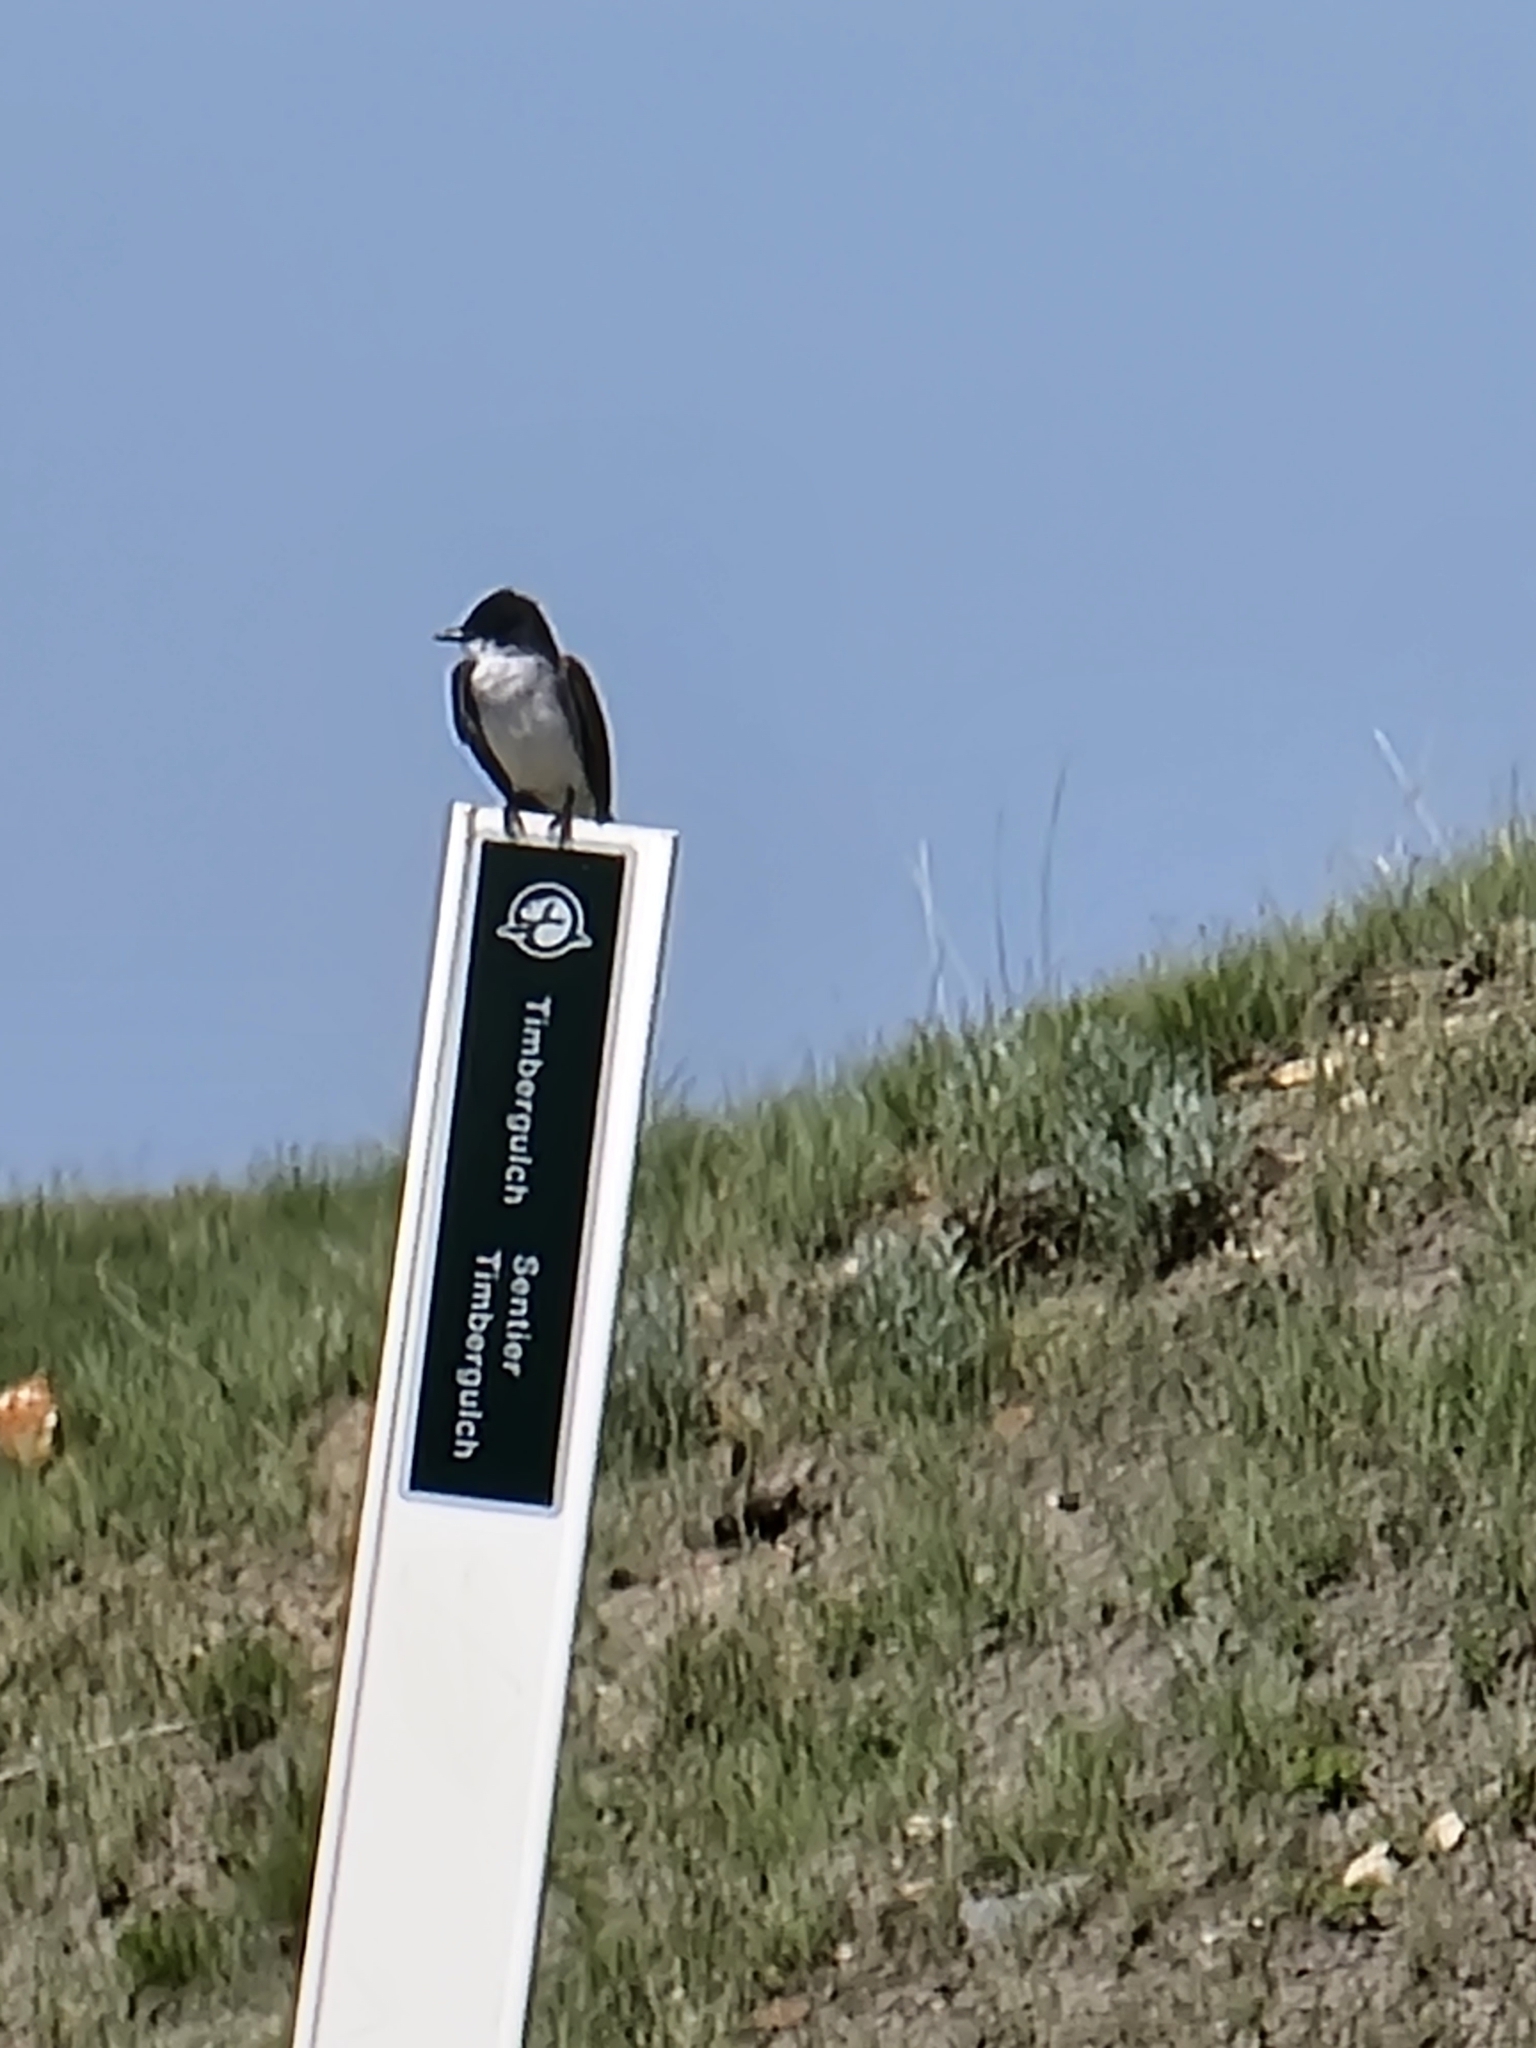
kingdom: Animalia
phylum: Chordata
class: Aves
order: Passeriformes
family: Tyrannidae
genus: Tyrannus
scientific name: Tyrannus tyrannus
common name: Eastern kingbird
